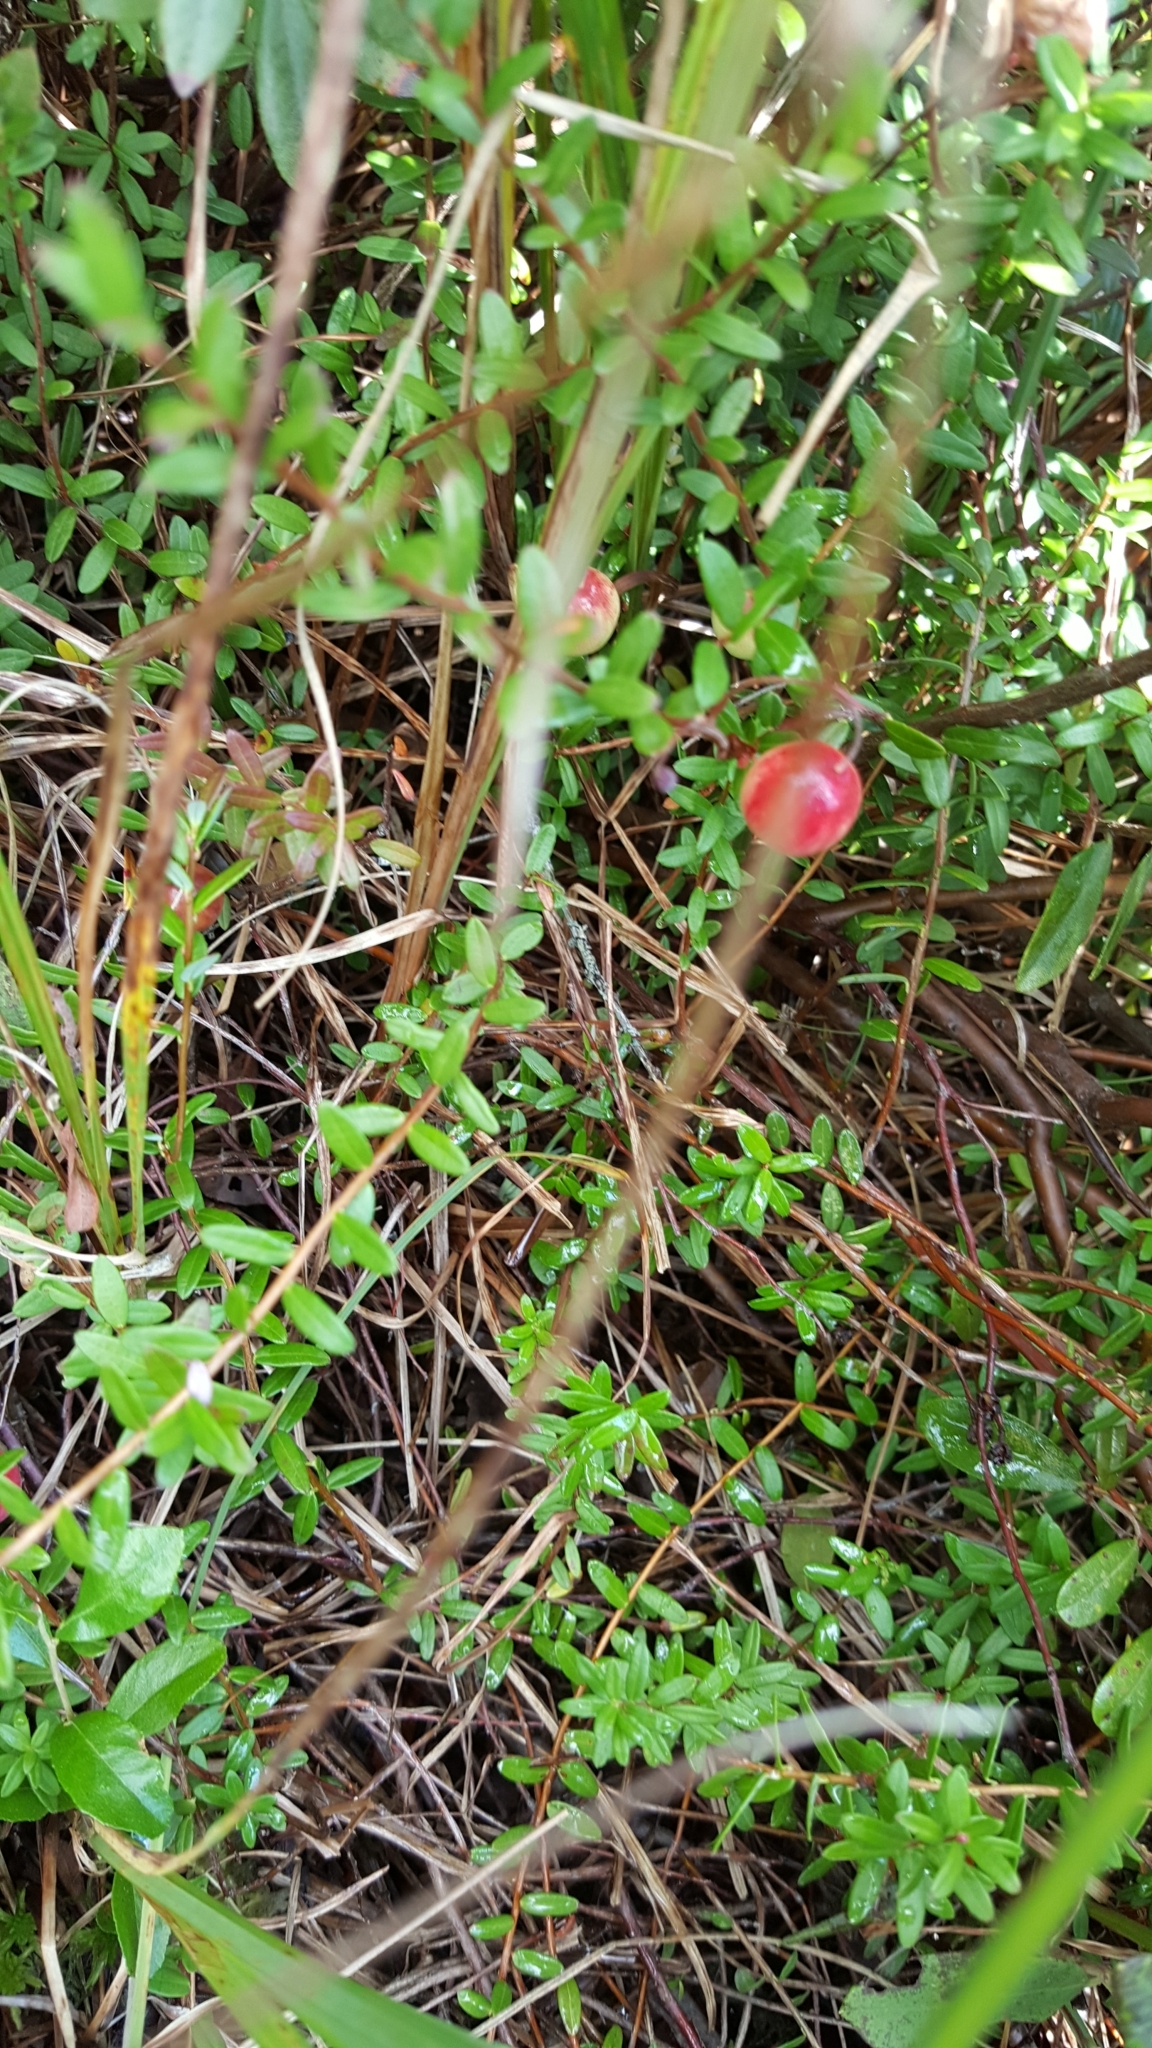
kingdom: Plantae
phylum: Tracheophyta
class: Magnoliopsida
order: Ericales
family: Ericaceae
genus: Vaccinium
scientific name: Vaccinium macrocarpon
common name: American cranberry
